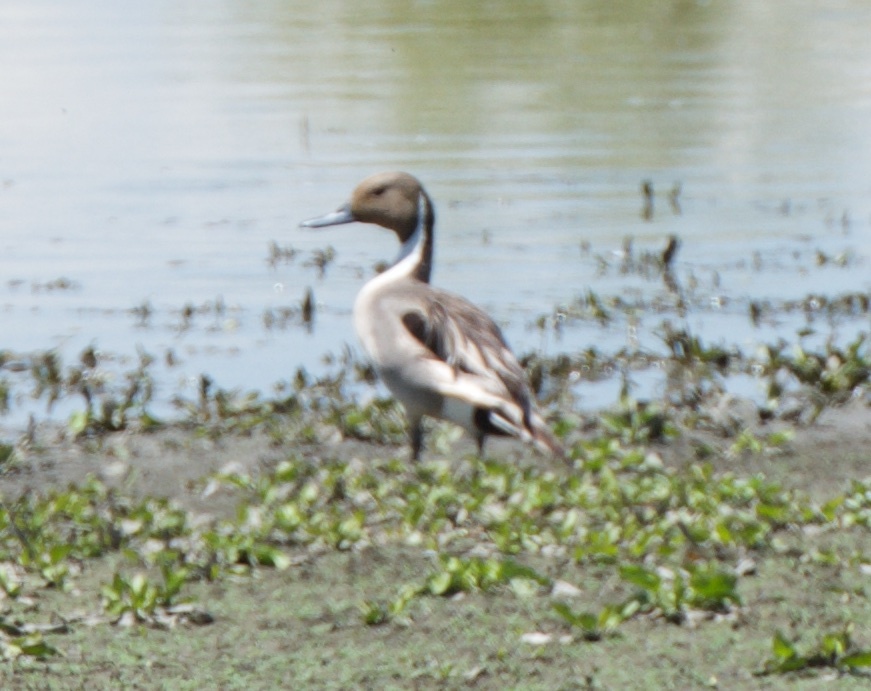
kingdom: Animalia
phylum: Chordata
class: Aves
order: Anseriformes
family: Anatidae
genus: Anas
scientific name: Anas acuta
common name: Northern pintail
